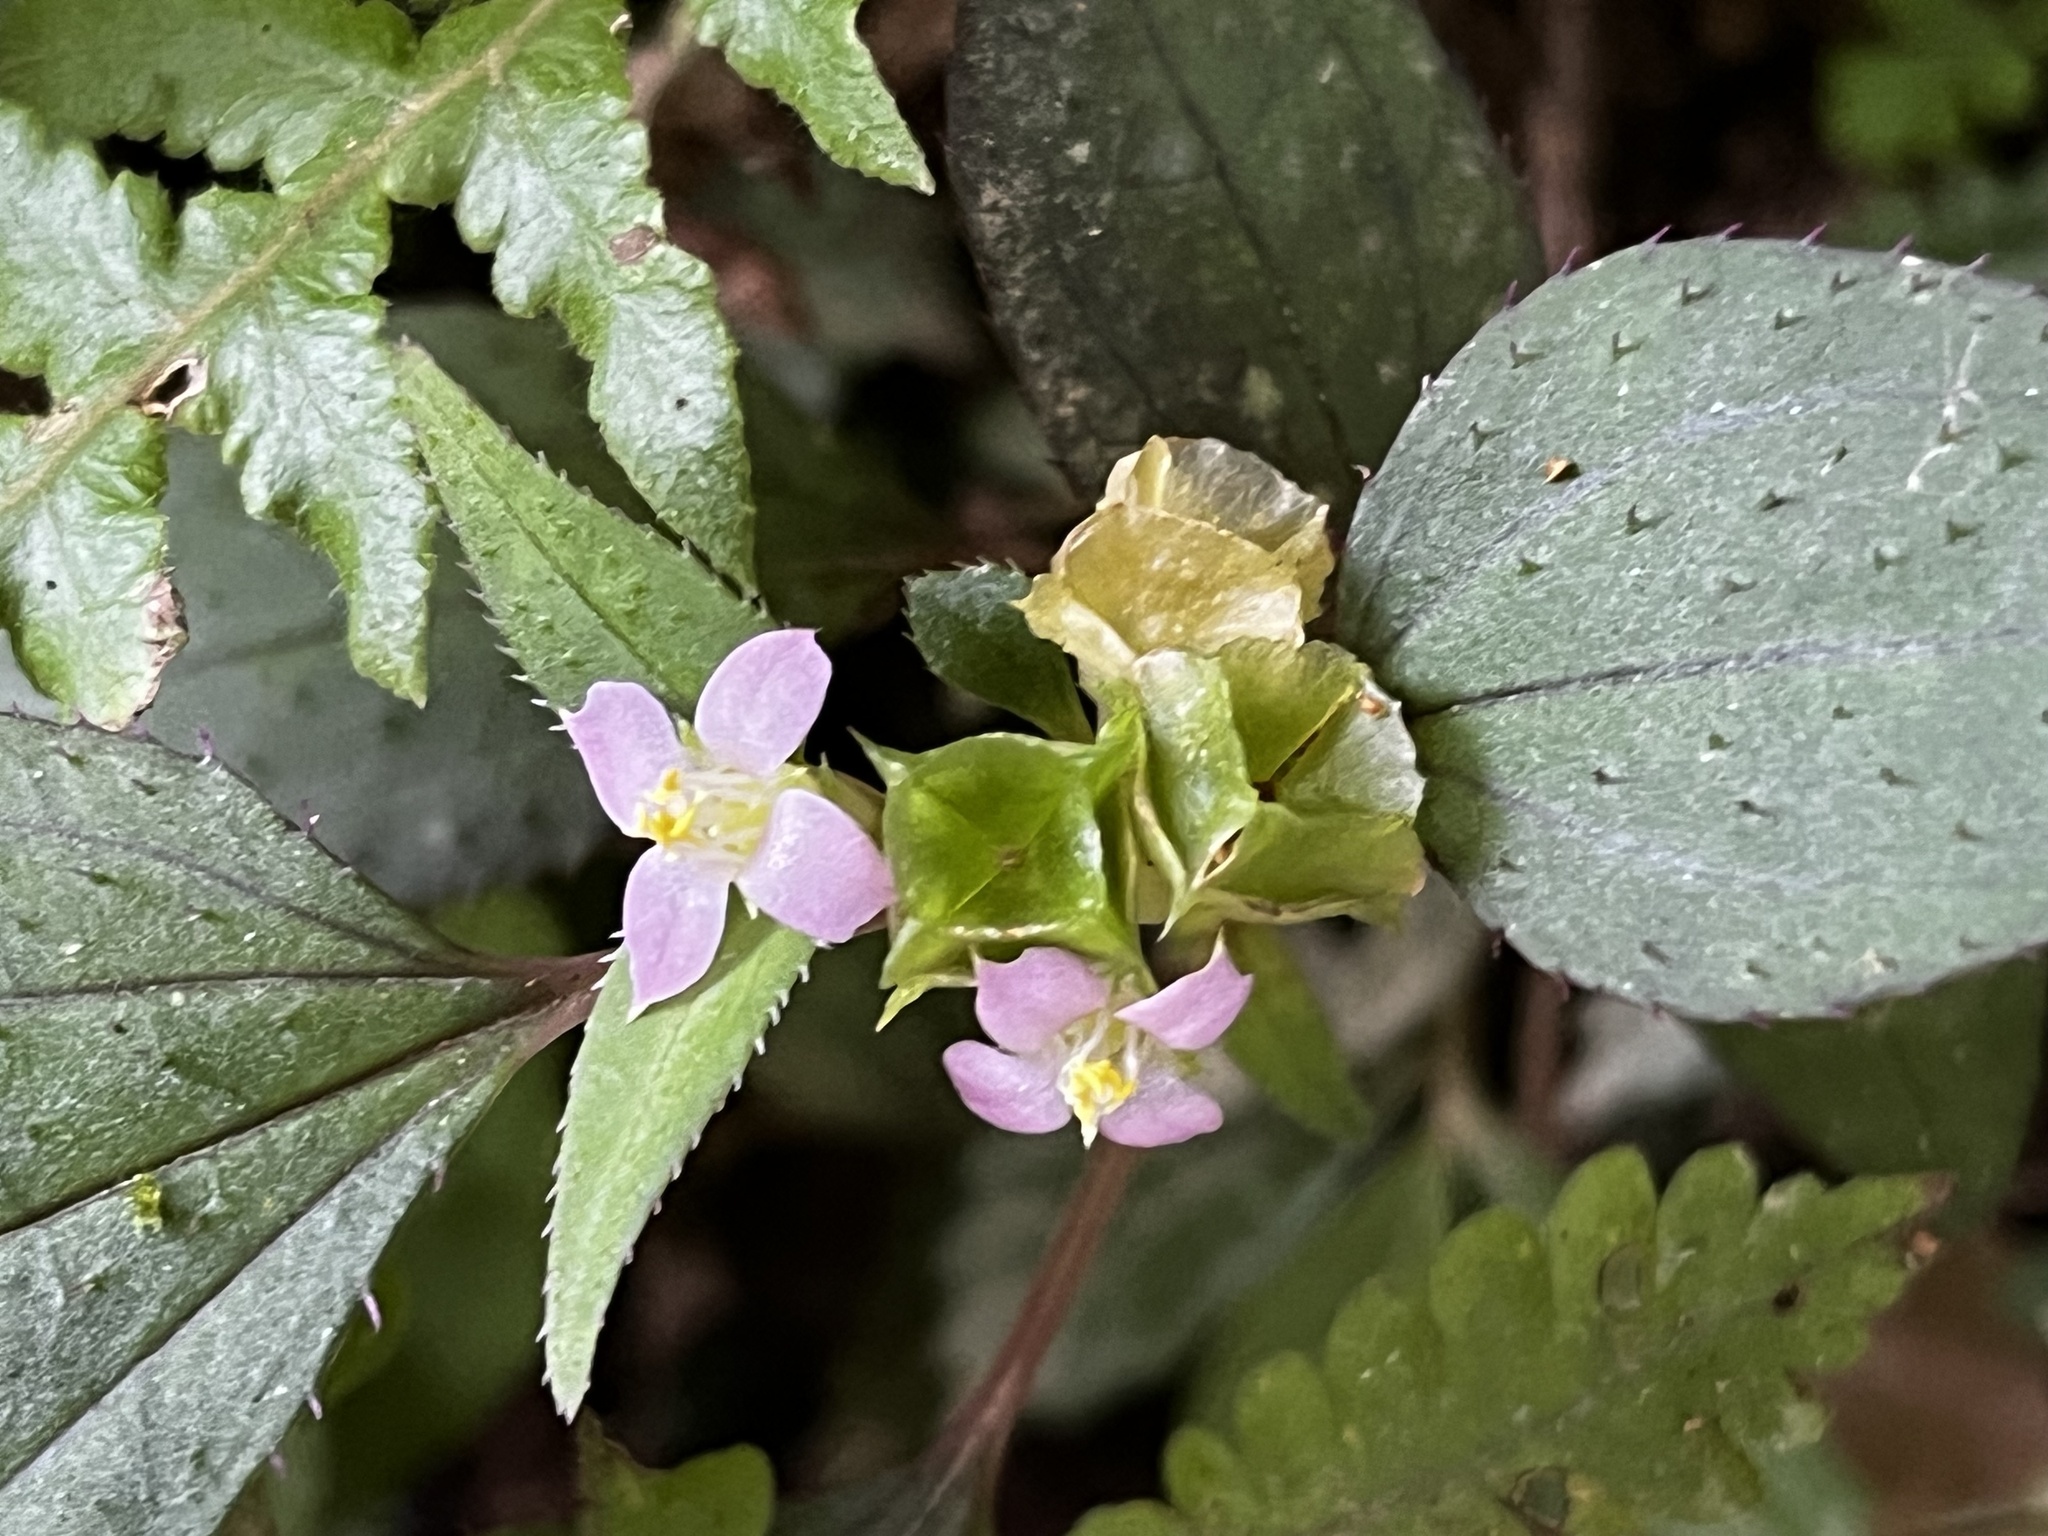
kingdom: Plantae
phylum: Tracheophyta
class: Magnoliopsida
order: Myrtales
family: Melastomataceae
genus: Sarcopyramis
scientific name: Sarcopyramis napalensis
